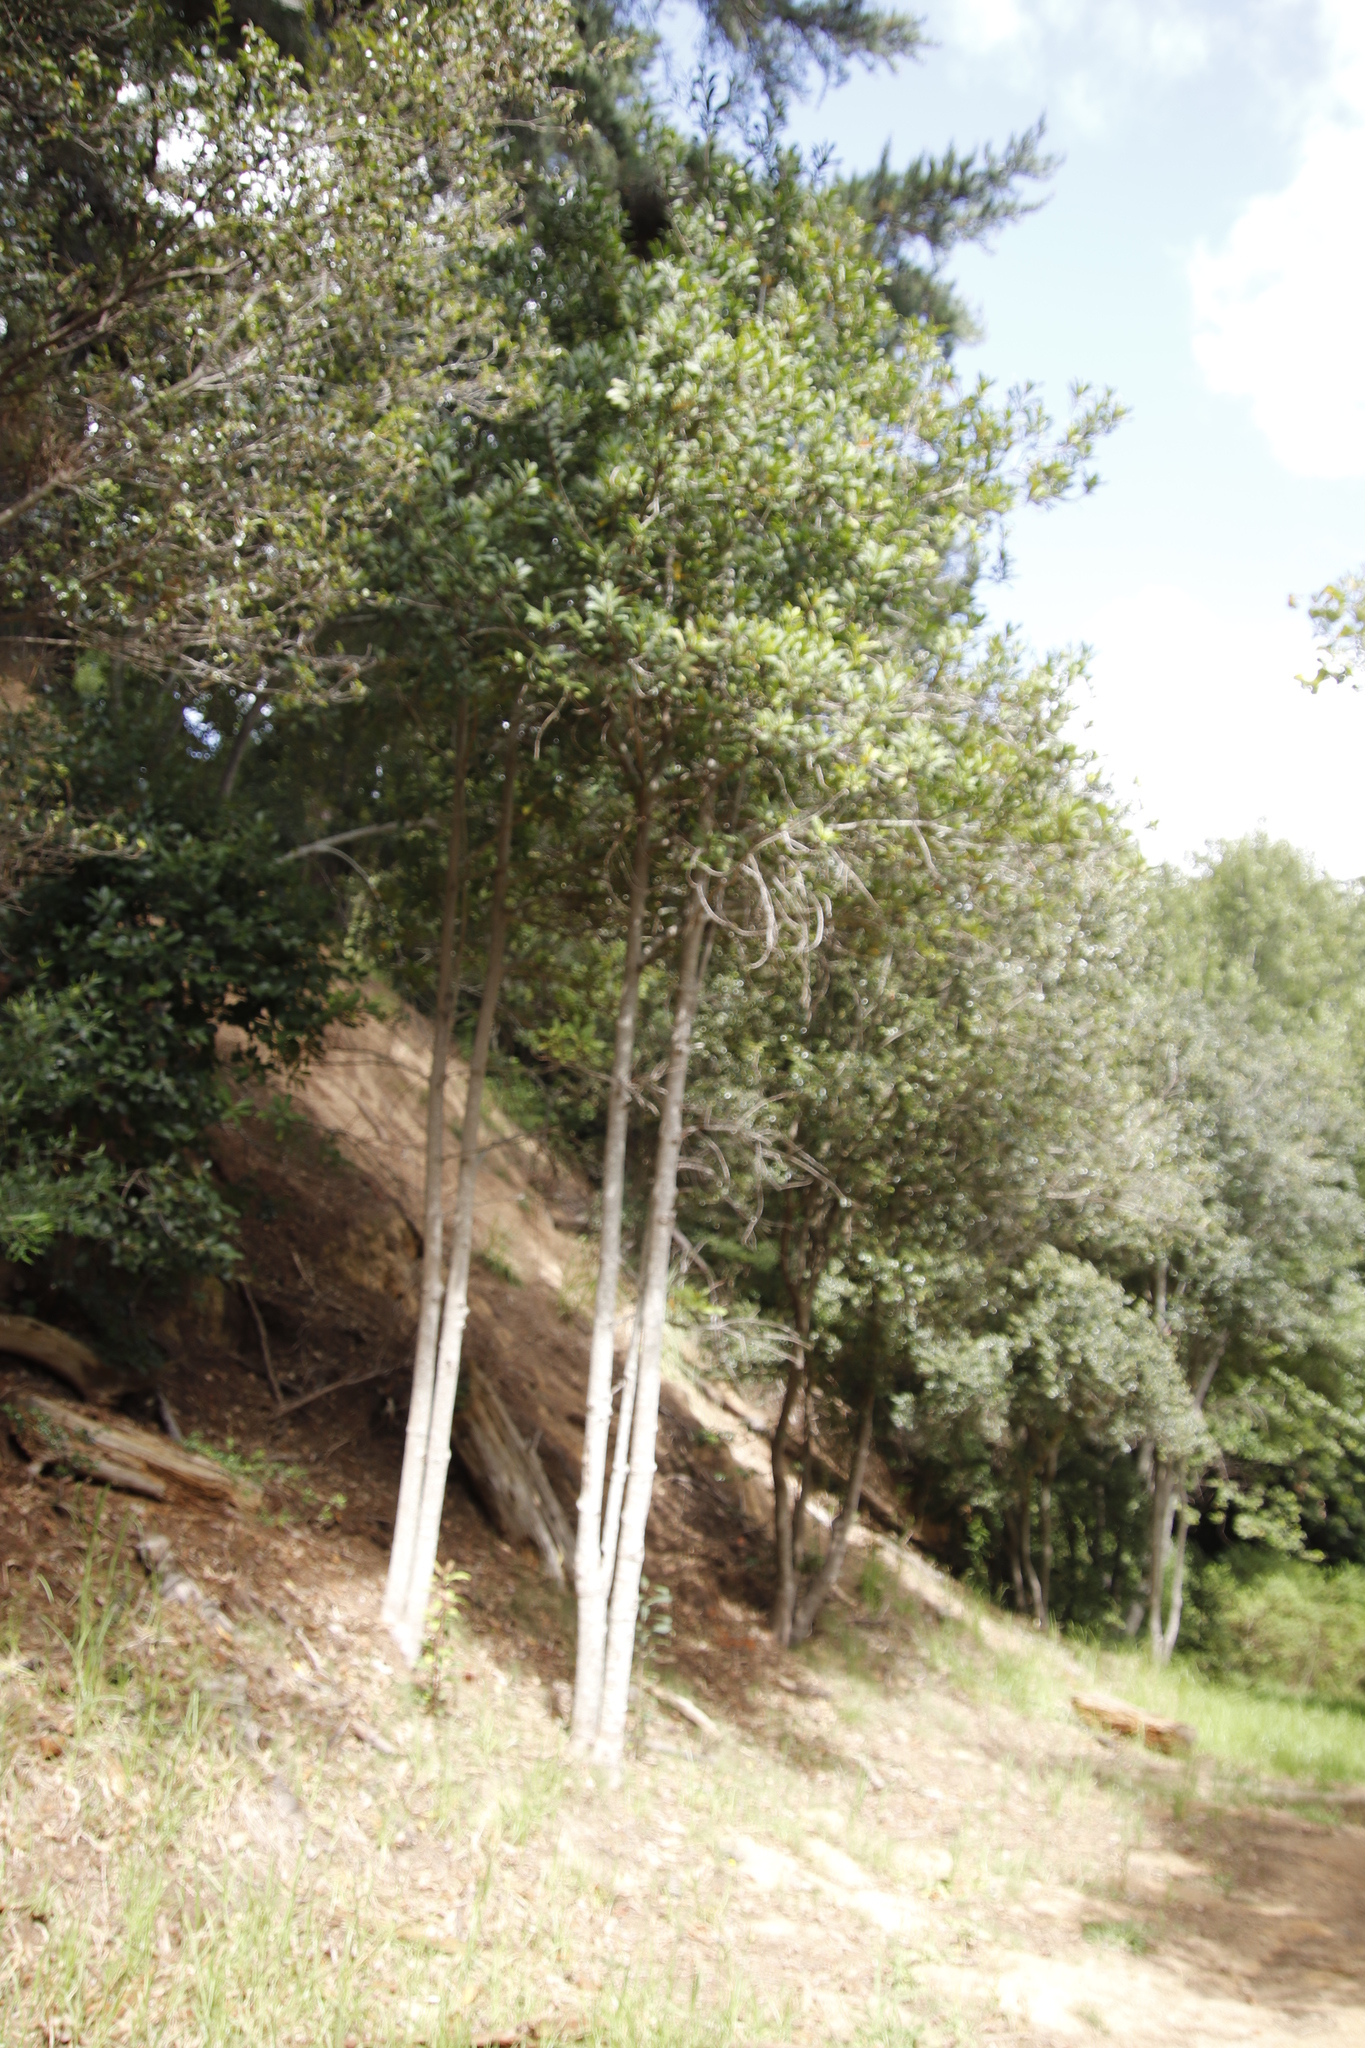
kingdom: Plantae
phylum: Tracheophyta
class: Magnoliopsida
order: Ericales
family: Primulaceae
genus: Myrsine
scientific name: Myrsine melanophloeos
